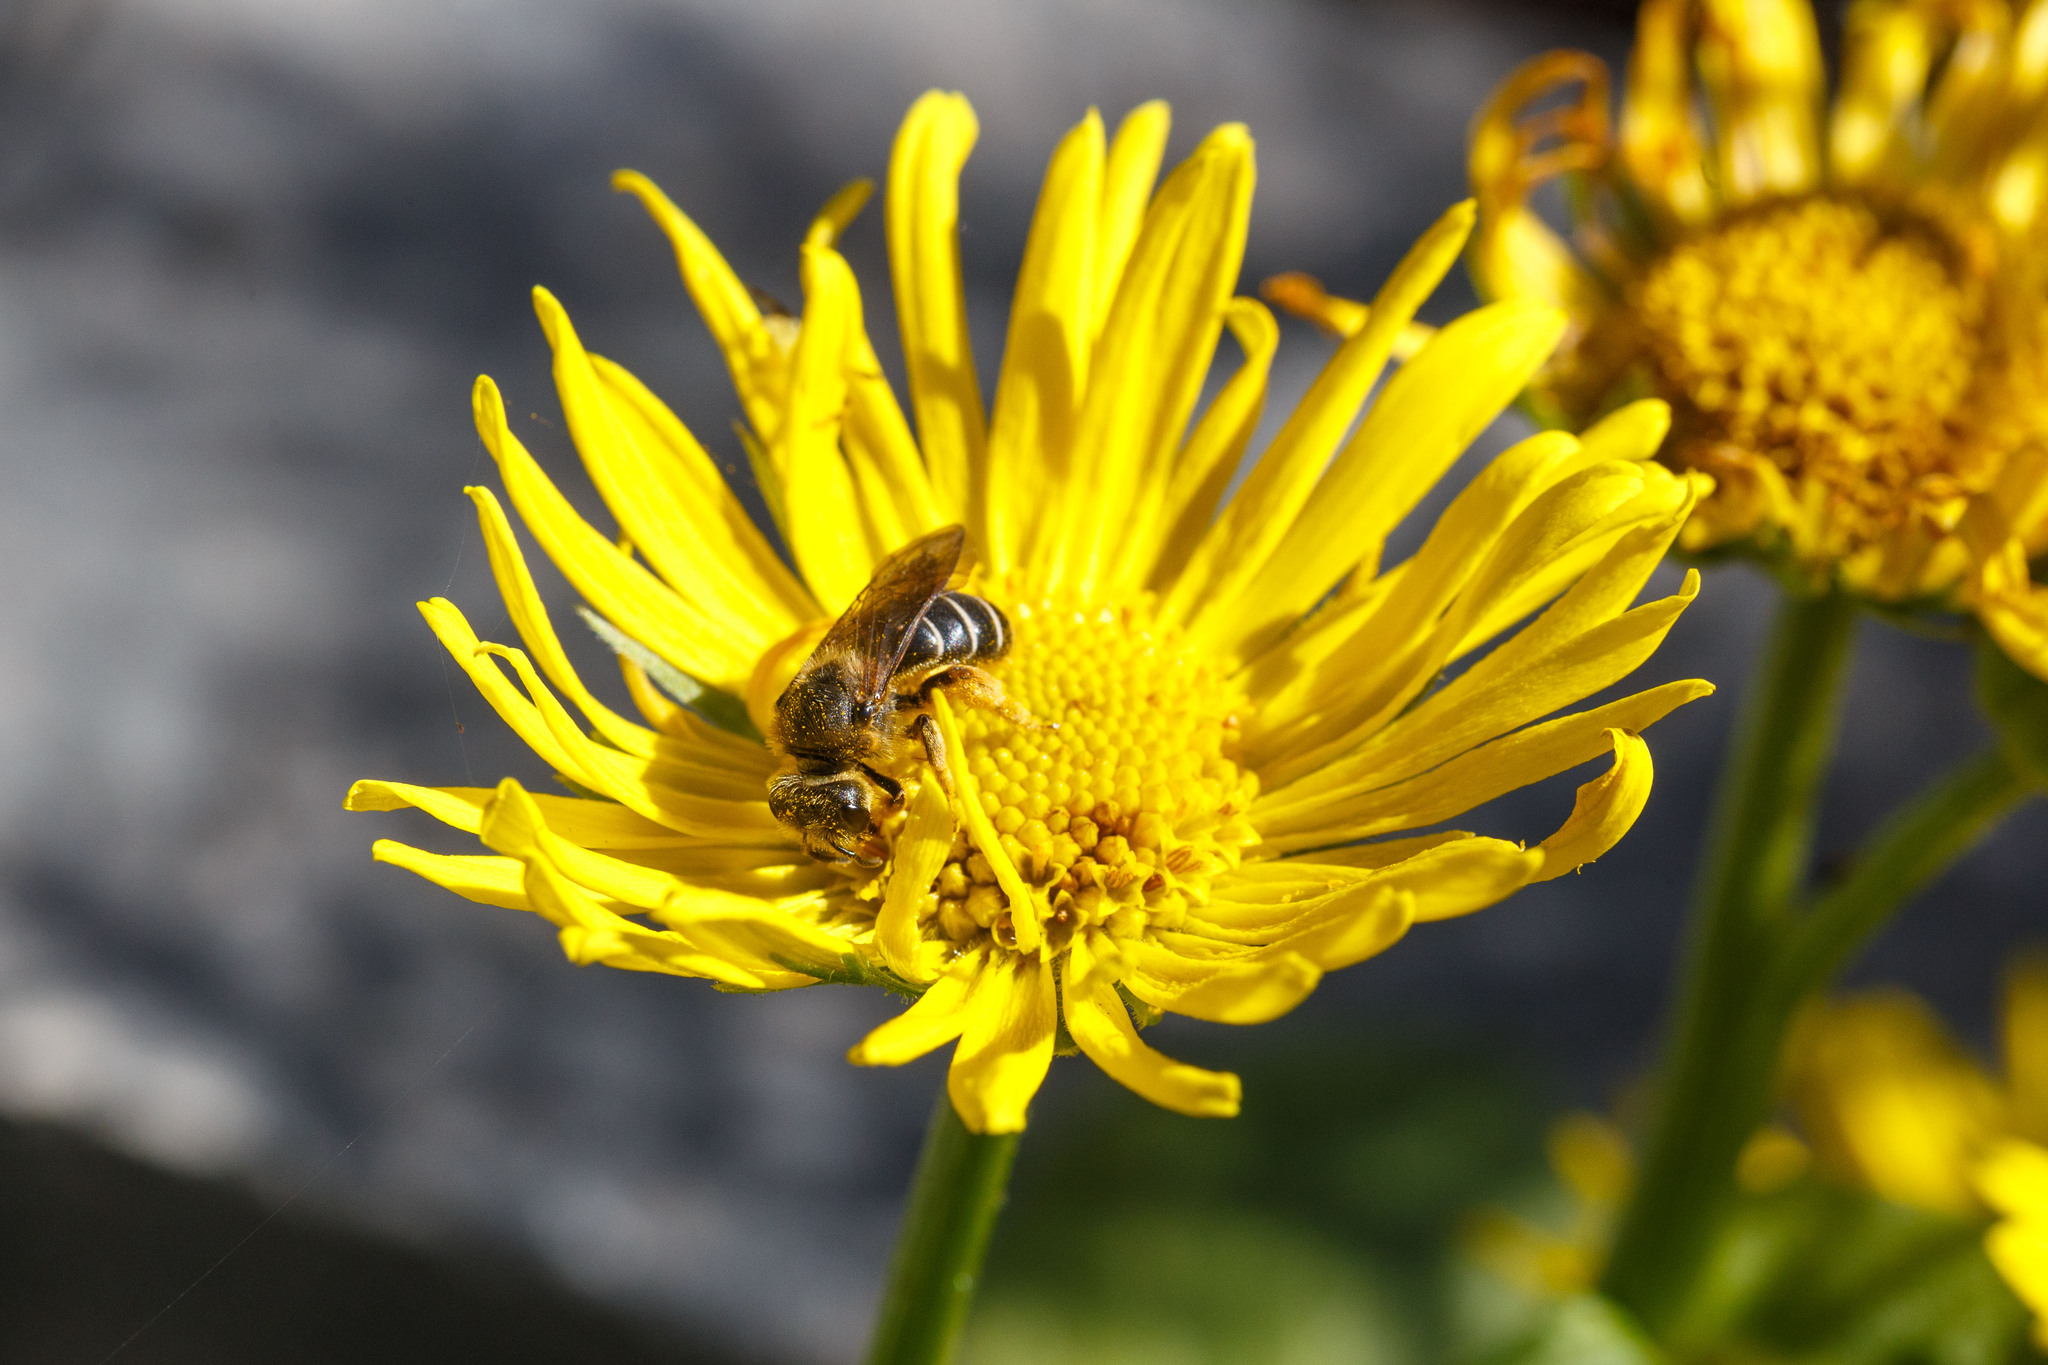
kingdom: Animalia
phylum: Arthropoda
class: Insecta
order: Hymenoptera
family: Halictidae
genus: Halictus
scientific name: Halictus rubicundus
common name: Orange-legged furrow bee
